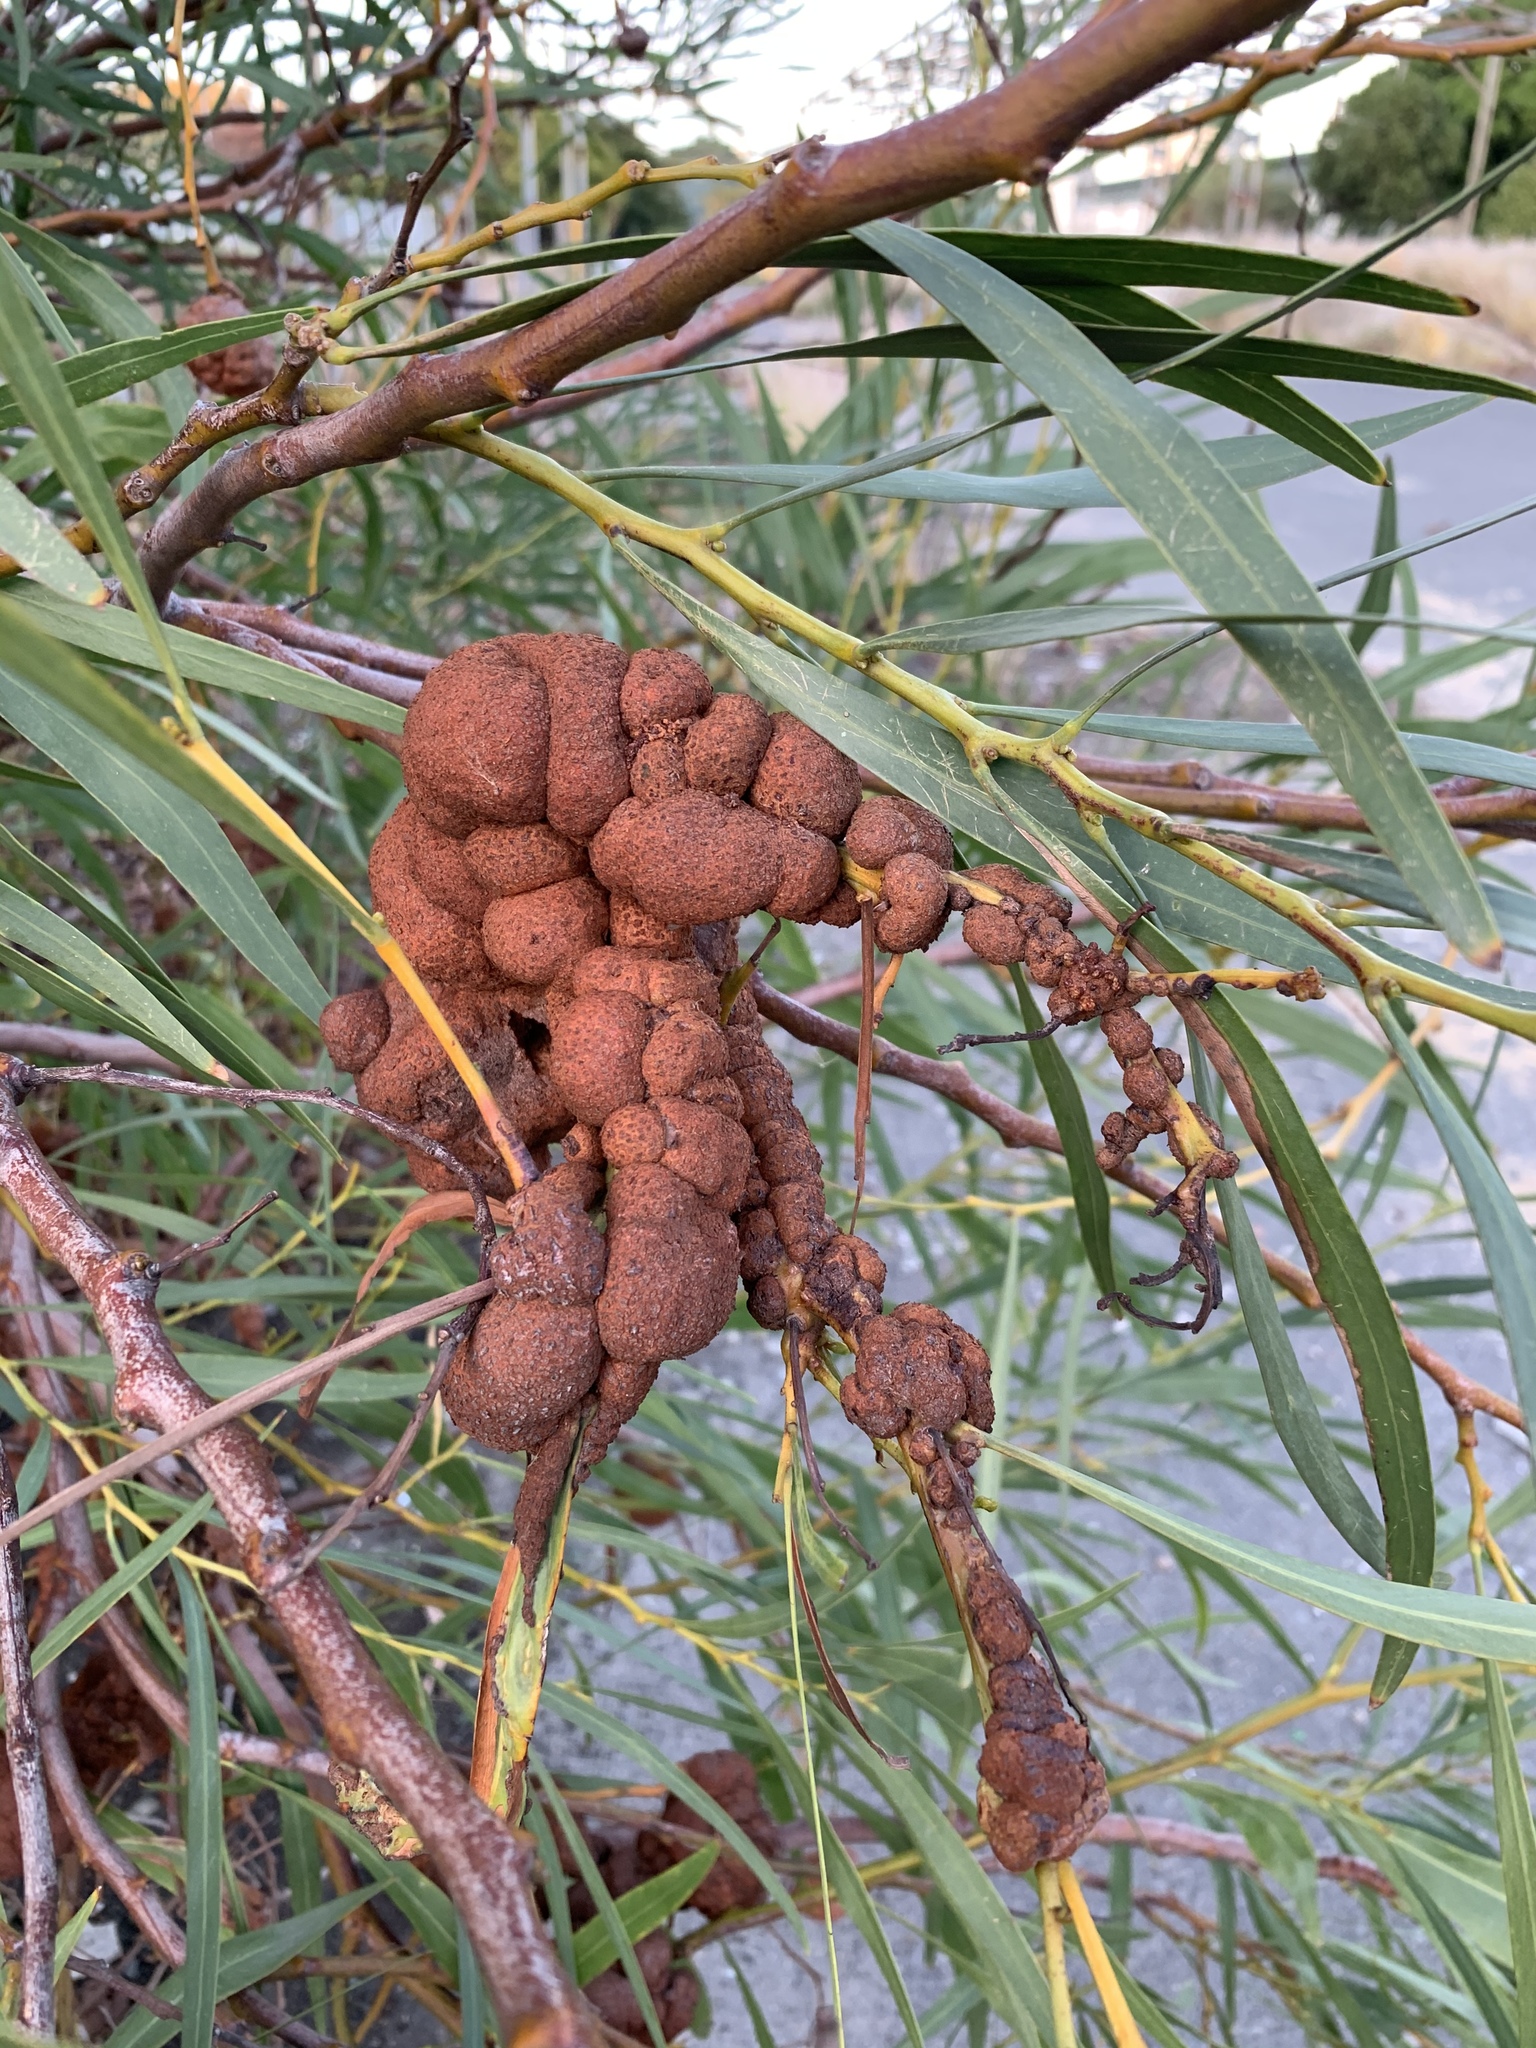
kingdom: Fungi
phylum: Basidiomycota
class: Pucciniomycetes
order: Pucciniales
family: Uromycladiaceae
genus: Uromycladium
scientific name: Uromycladium morrisii
